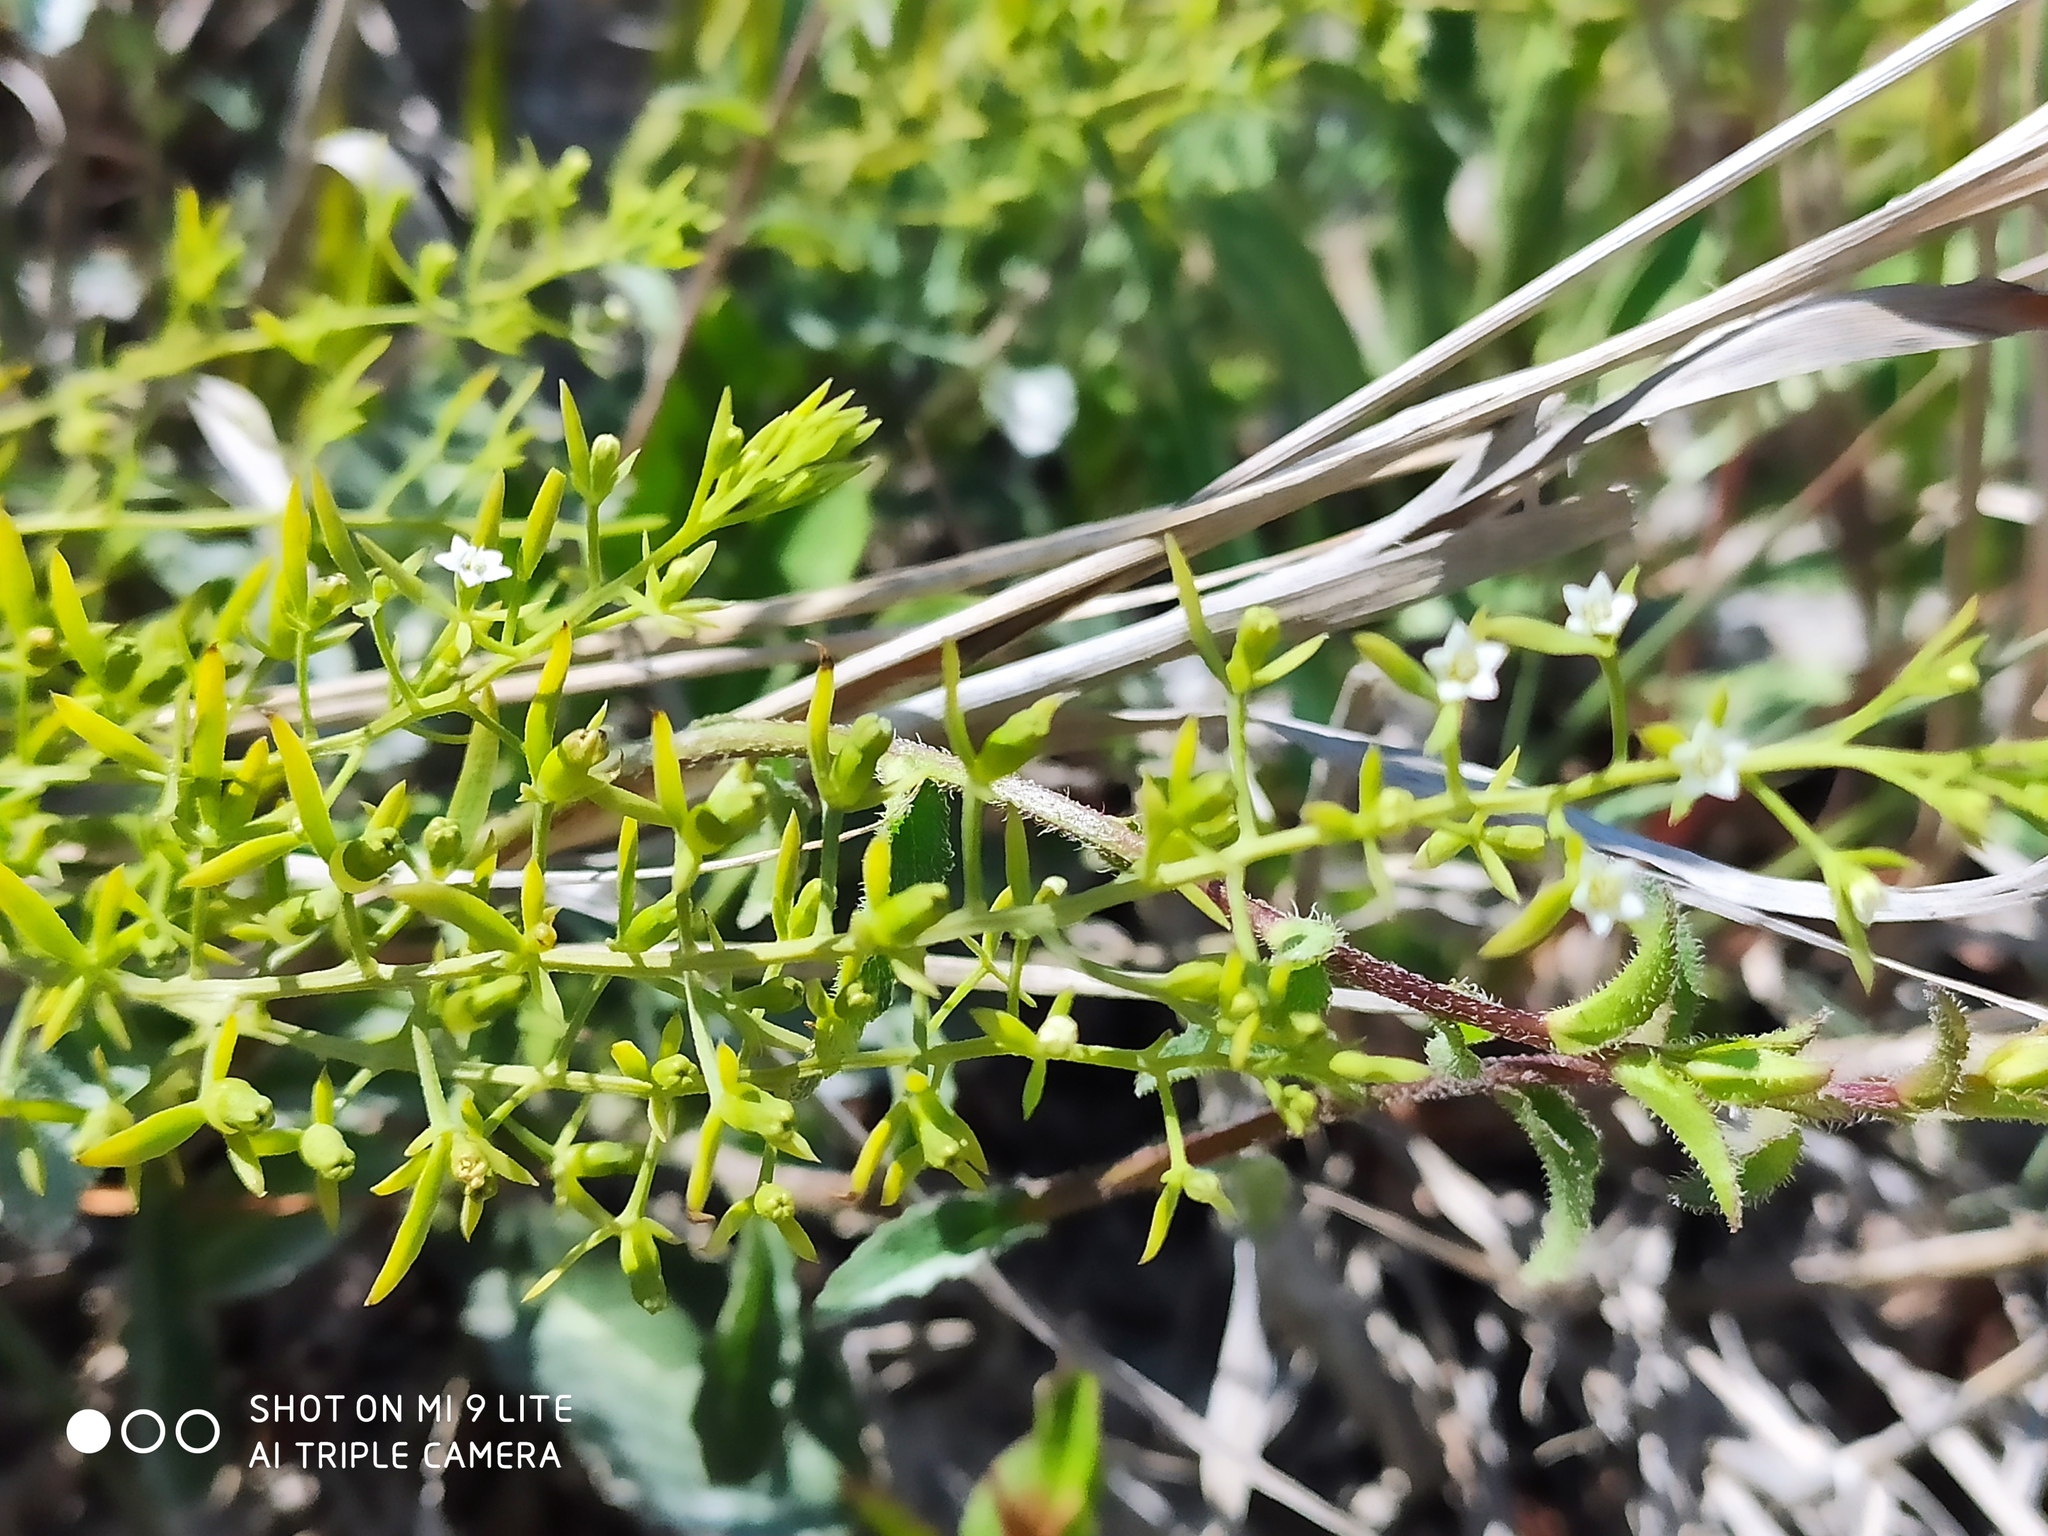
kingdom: Plantae
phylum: Tracheophyta
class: Magnoliopsida
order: Santalales
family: Thesiaceae
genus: Thesium
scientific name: Thesium ramosum
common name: Field thesium
